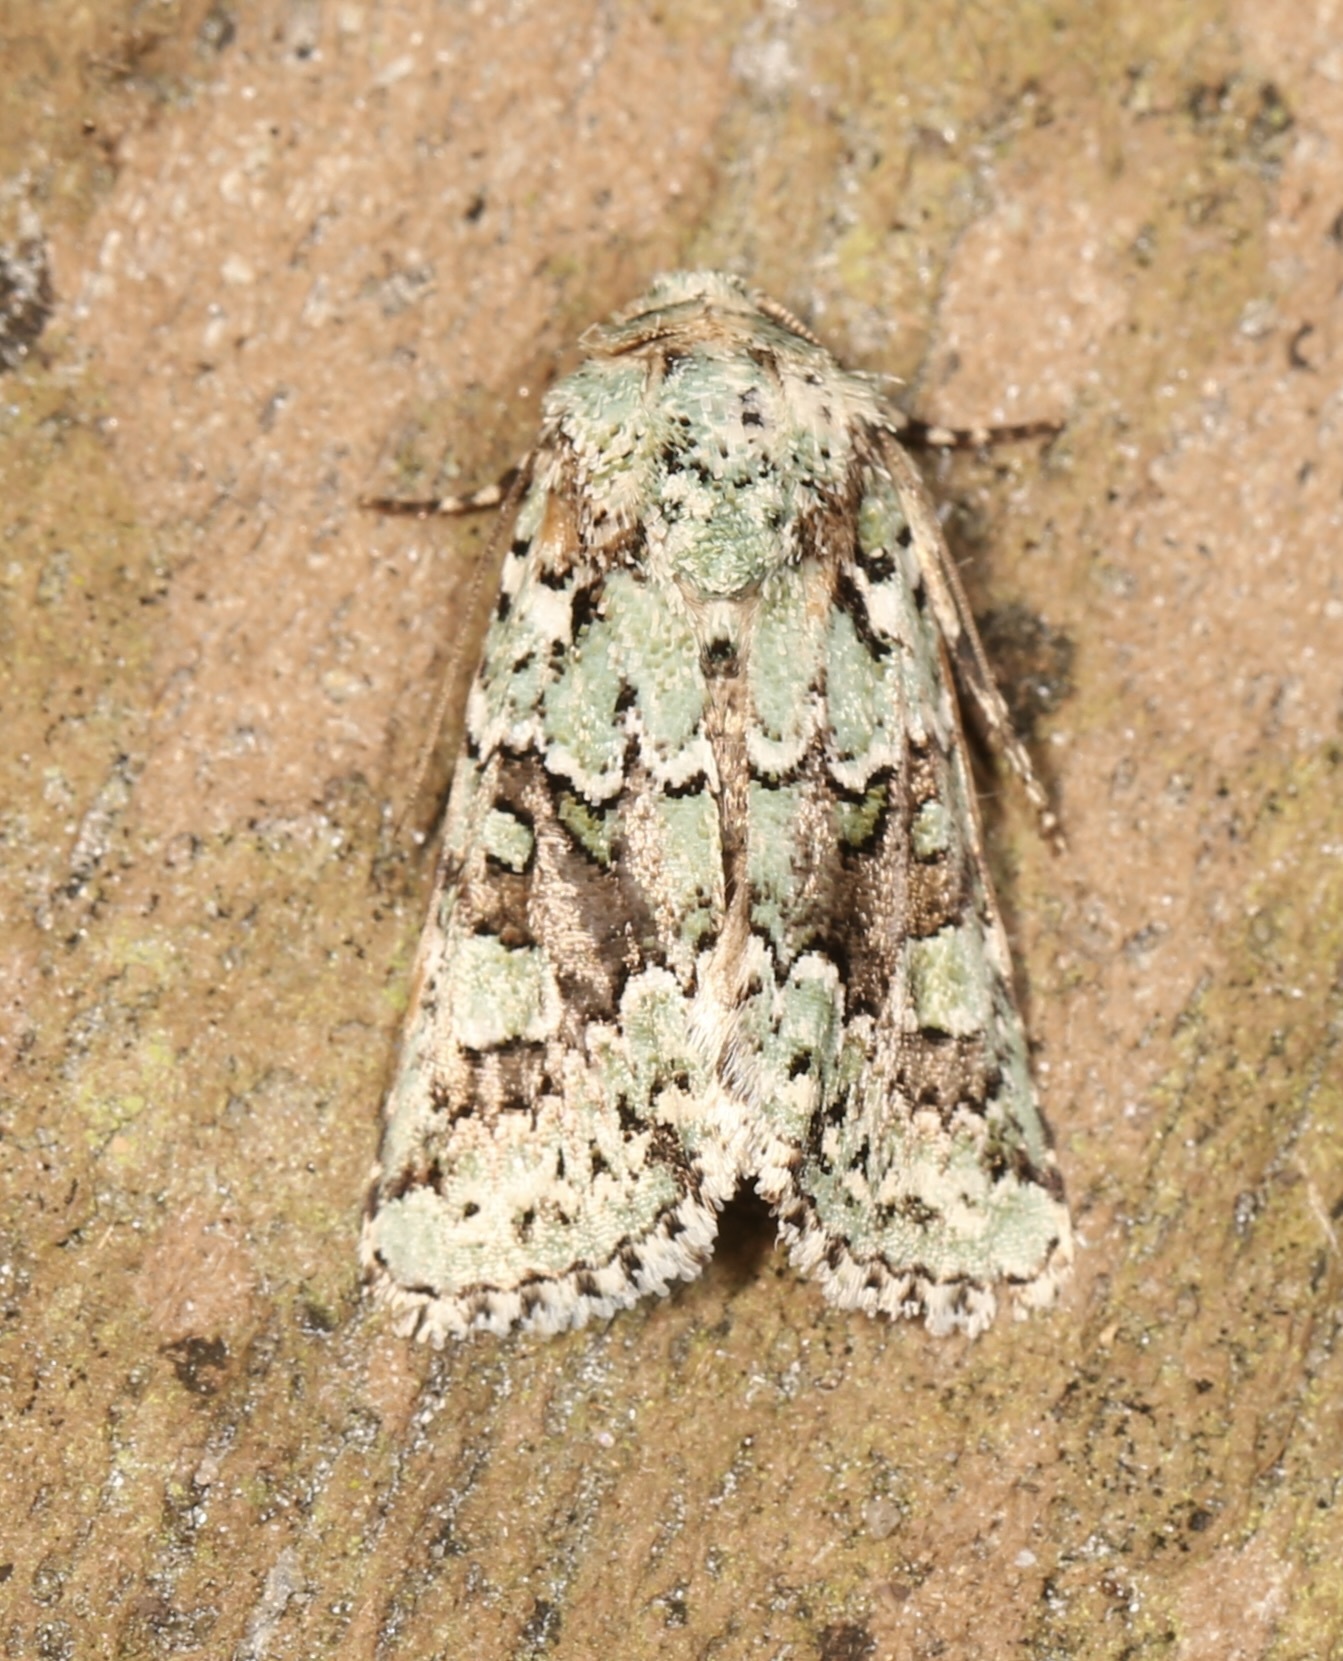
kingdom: Animalia
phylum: Arthropoda
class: Insecta
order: Lepidoptera
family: Noctuidae
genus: Lacinipolia
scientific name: Lacinipolia laudabilis
